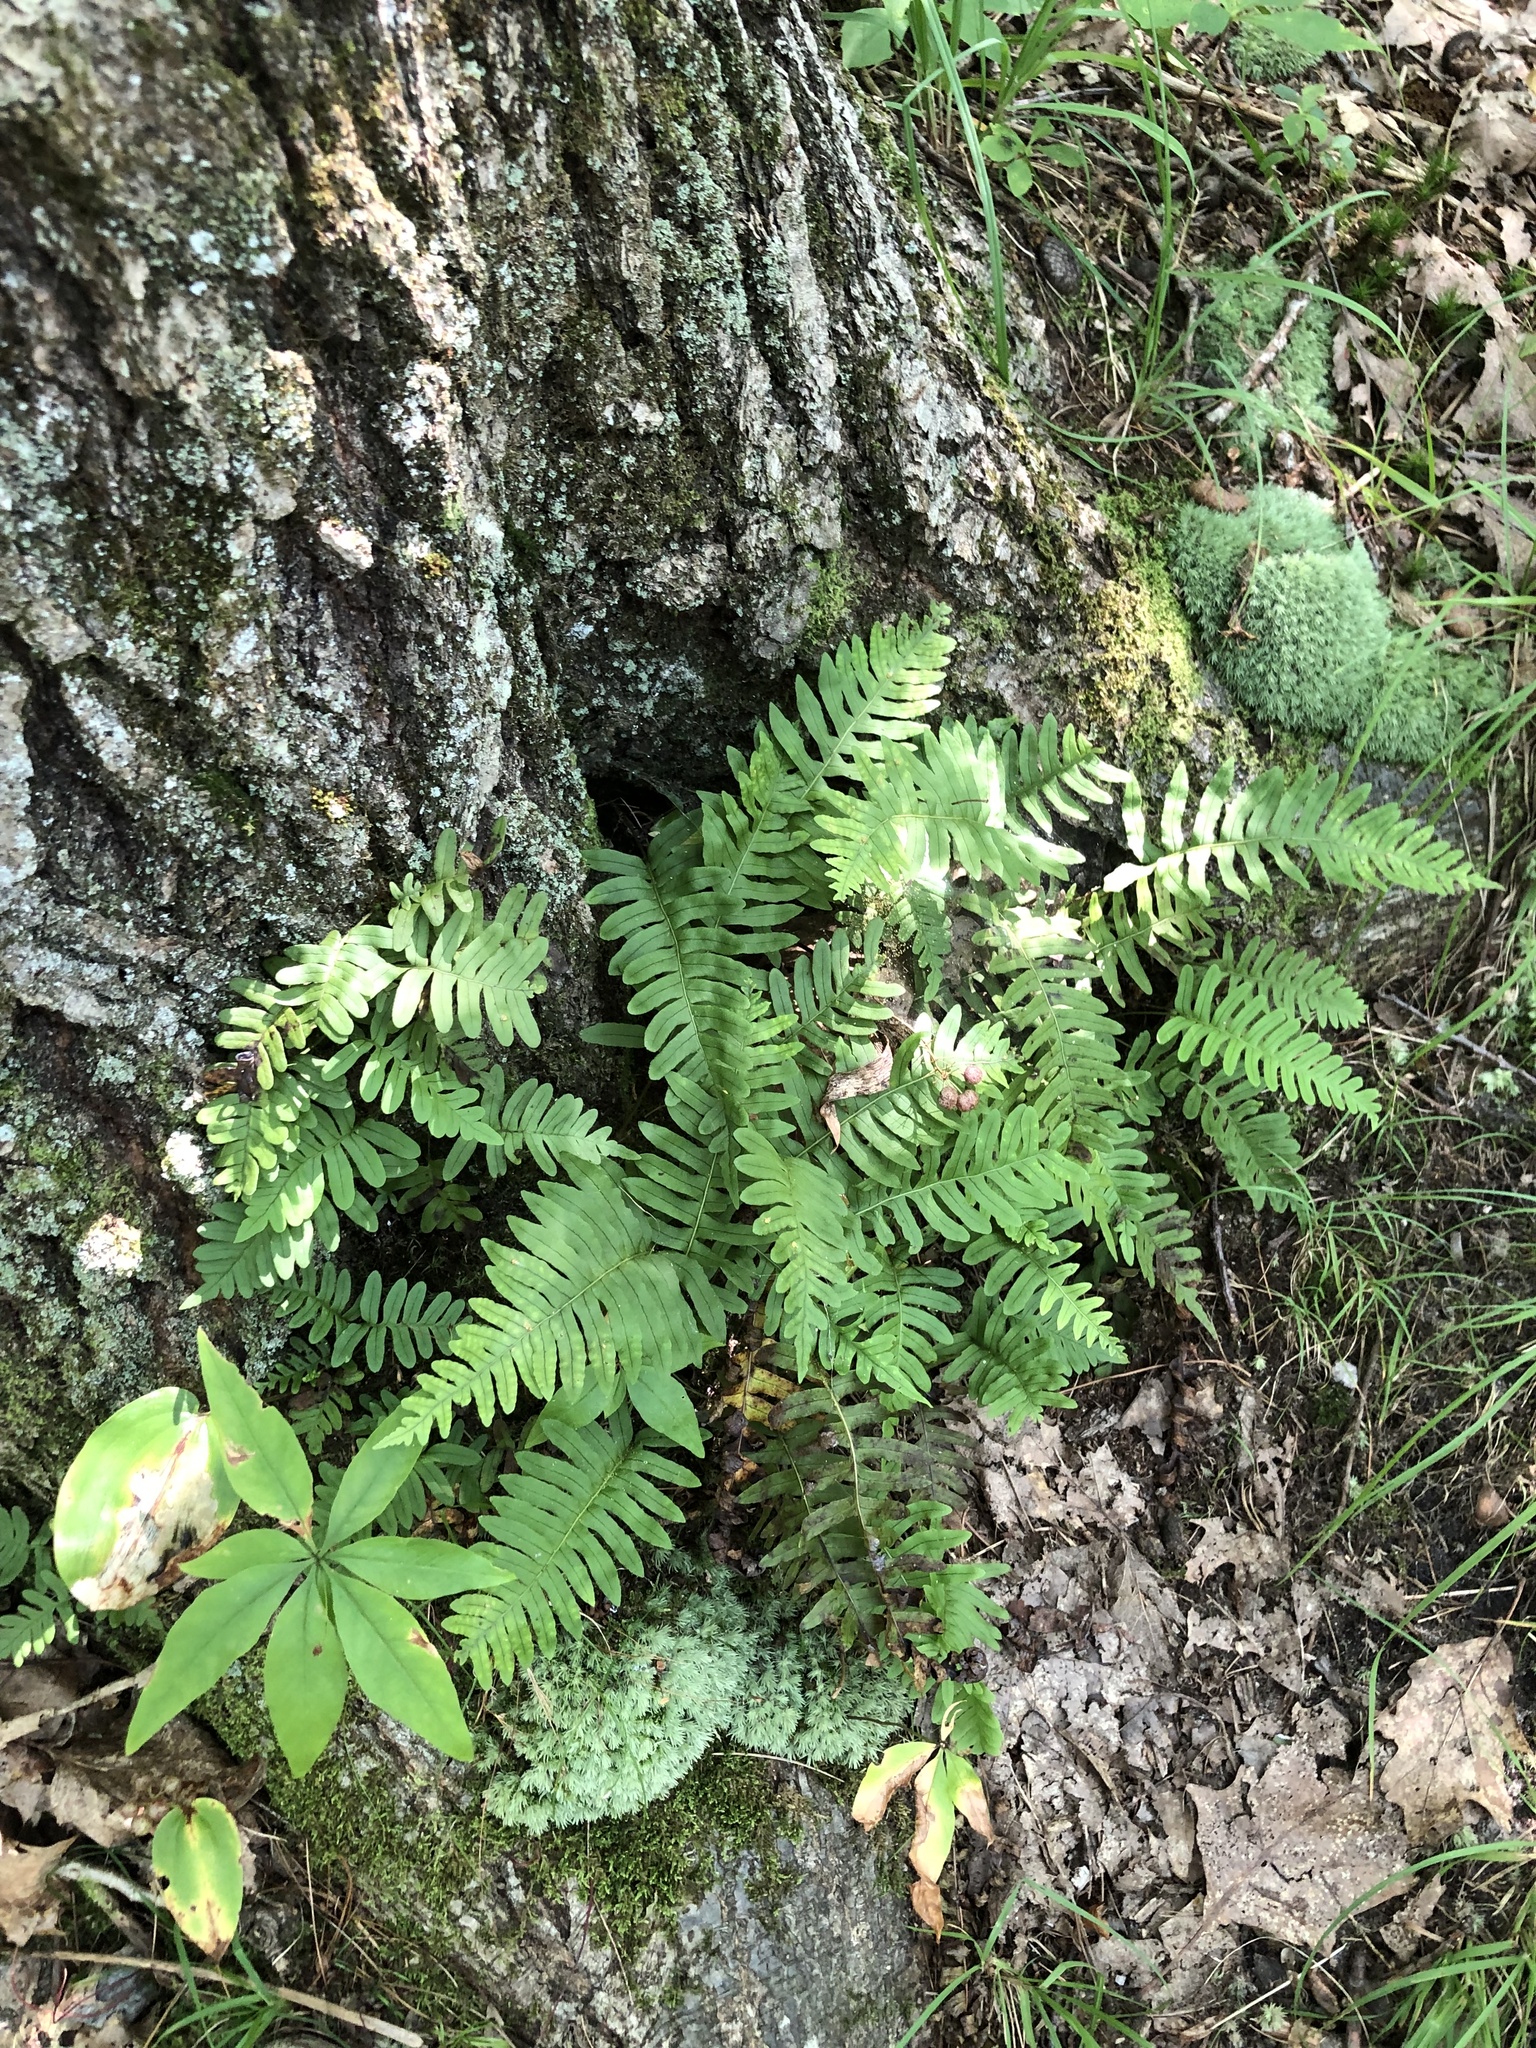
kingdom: Plantae
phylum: Tracheophyta
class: Polypodiopsida
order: Polypodiales
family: Polypodiaceae
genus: Polypodium
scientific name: Polypodium virginianum
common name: American wall fern
